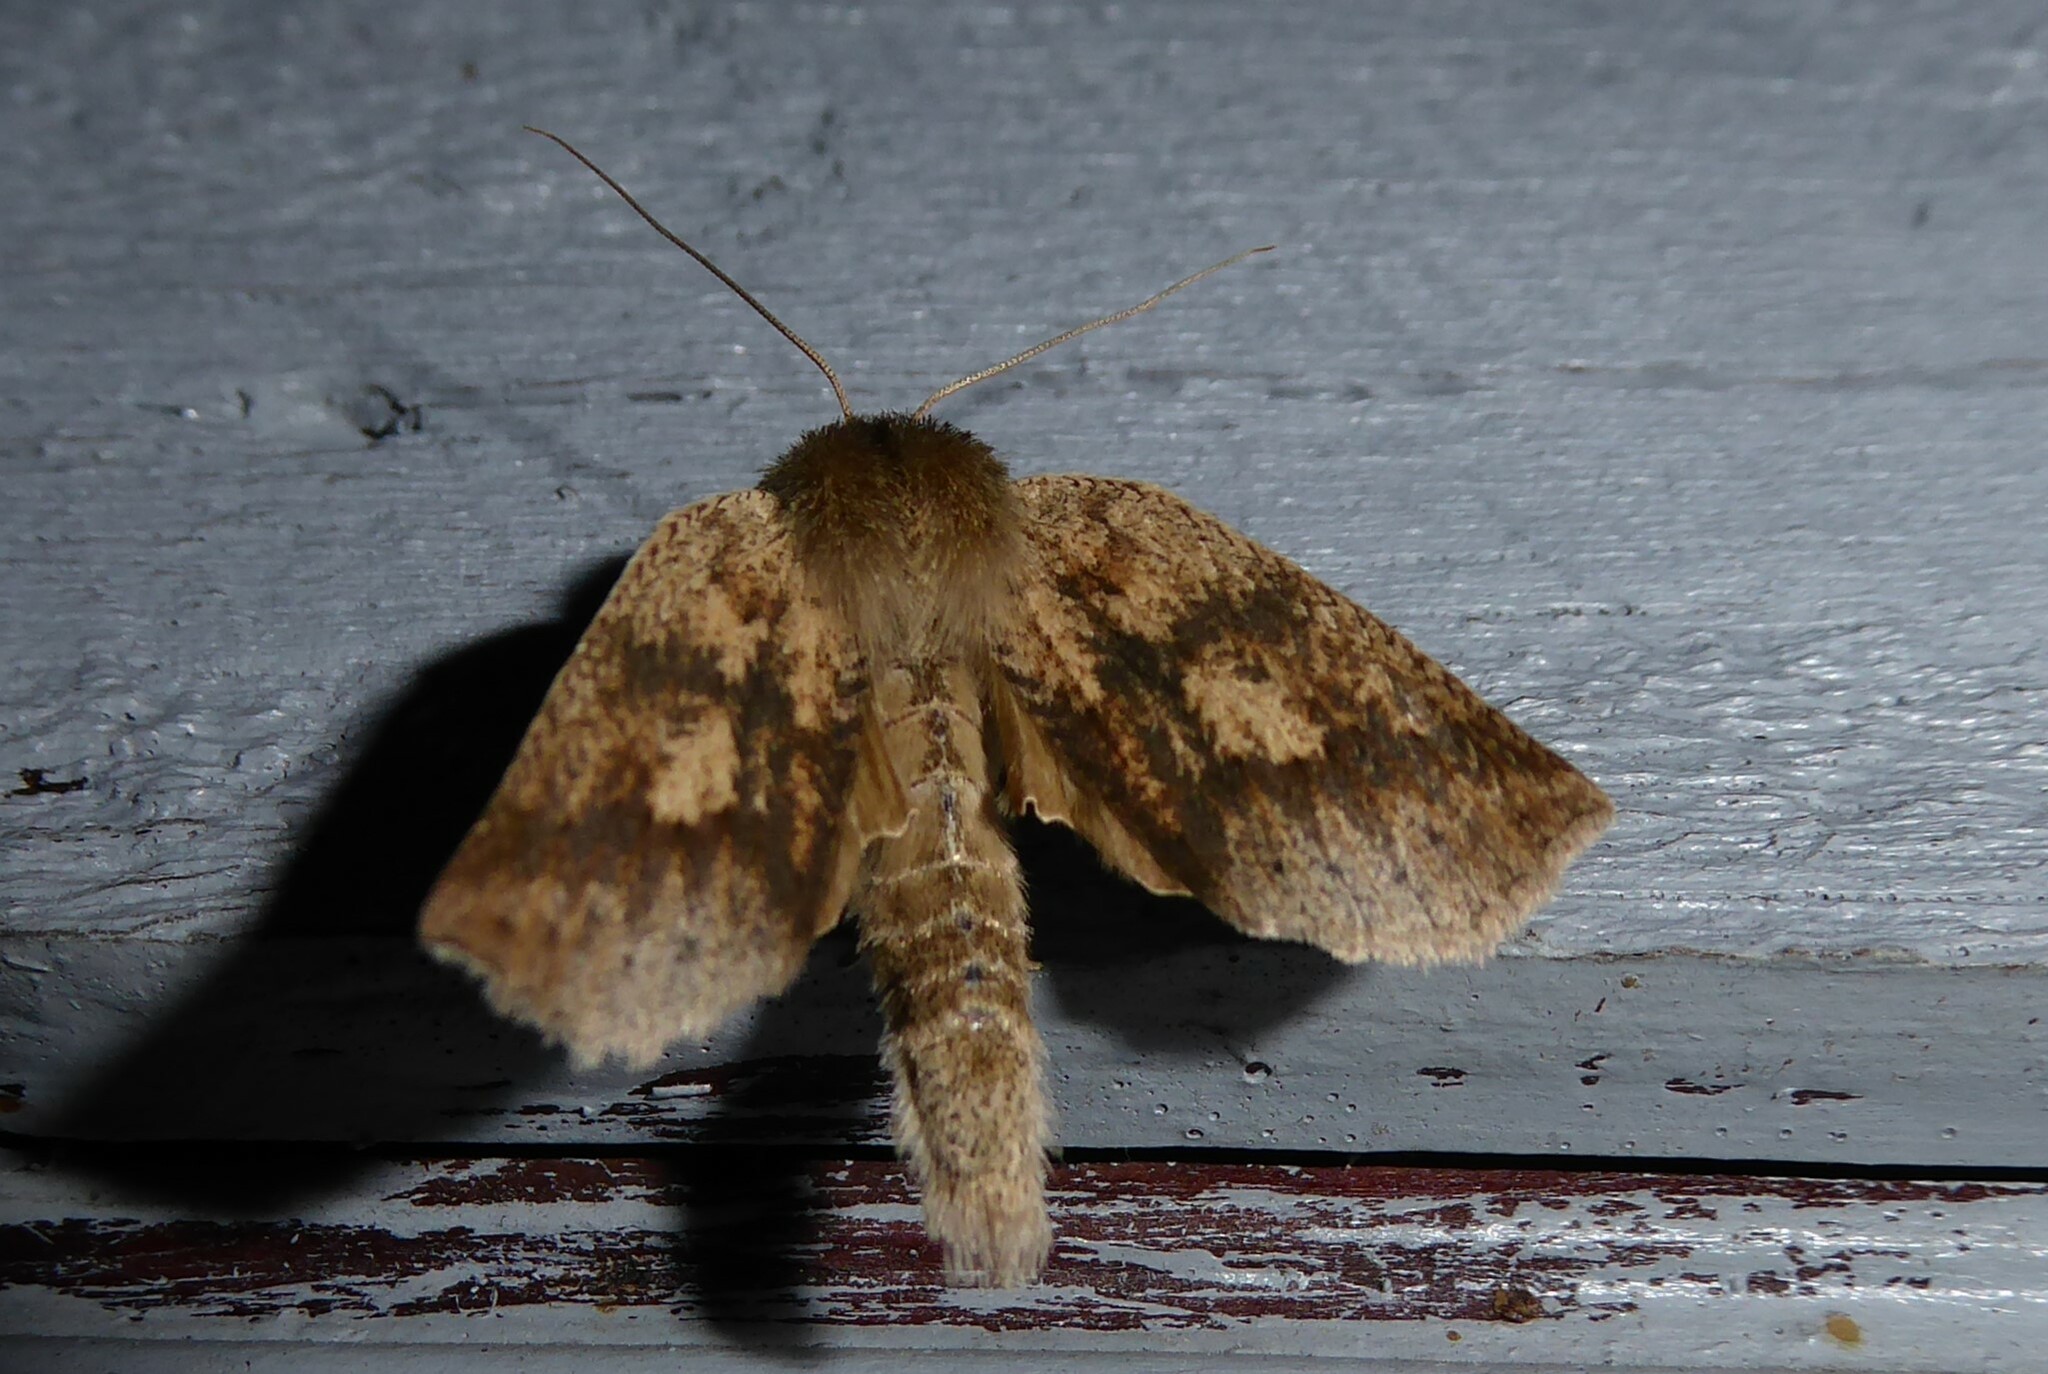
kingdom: Animalia
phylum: Arthropoda
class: Insecta
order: Lepidoptera
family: Geometridae
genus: Declana
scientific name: Declana leptomera
